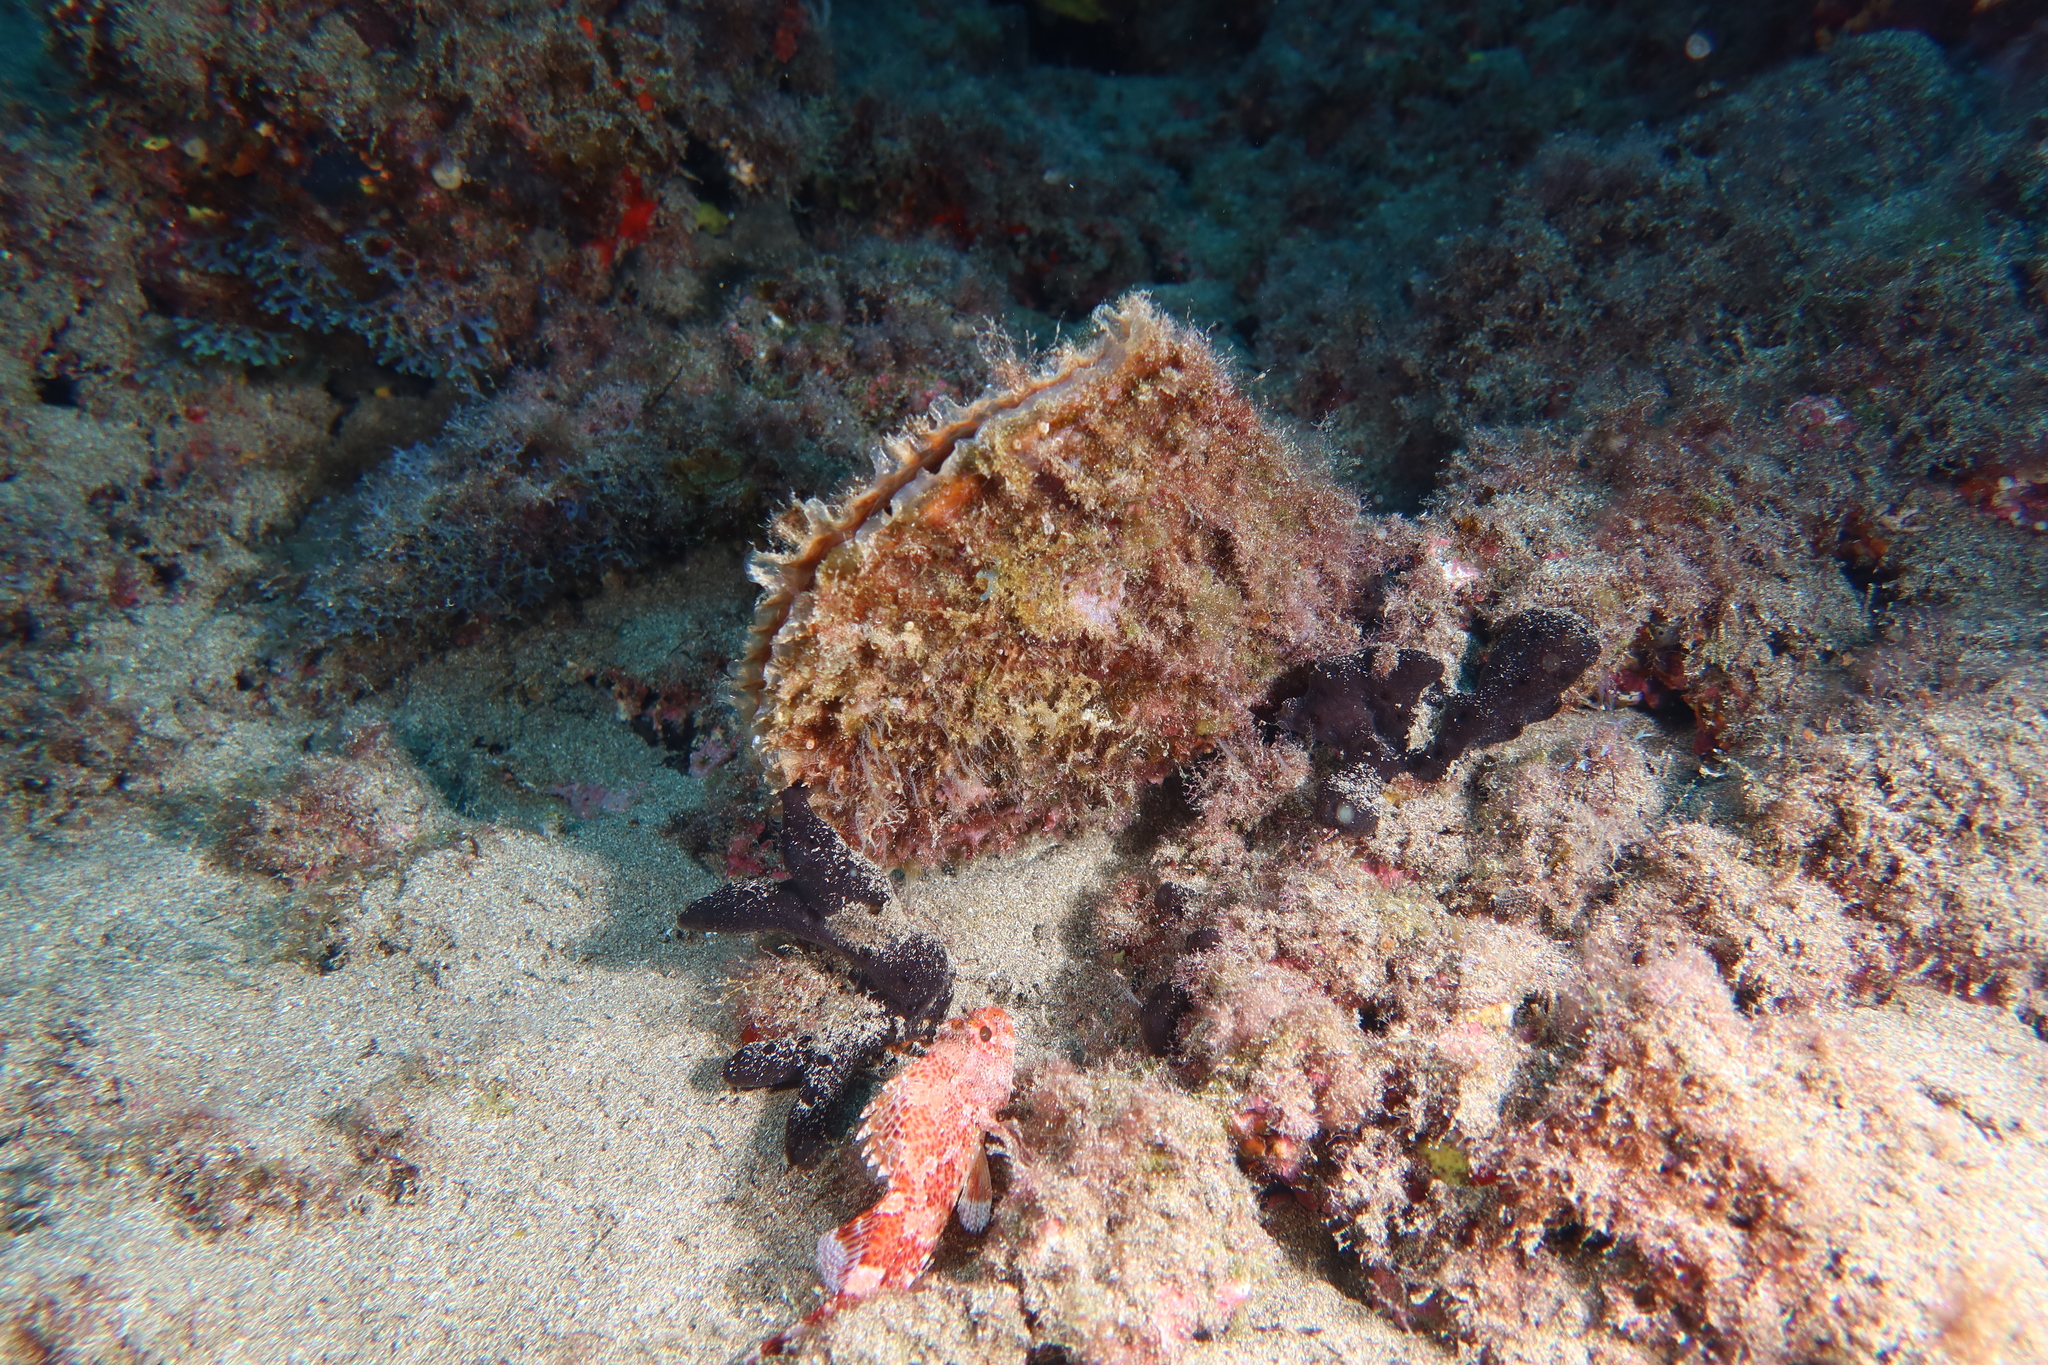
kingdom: Animalia
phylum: Mollusca
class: Bivalvia
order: Ostreida
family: Pinnidae
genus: Pinna
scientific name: Pinna rudis
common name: Rough penshell
